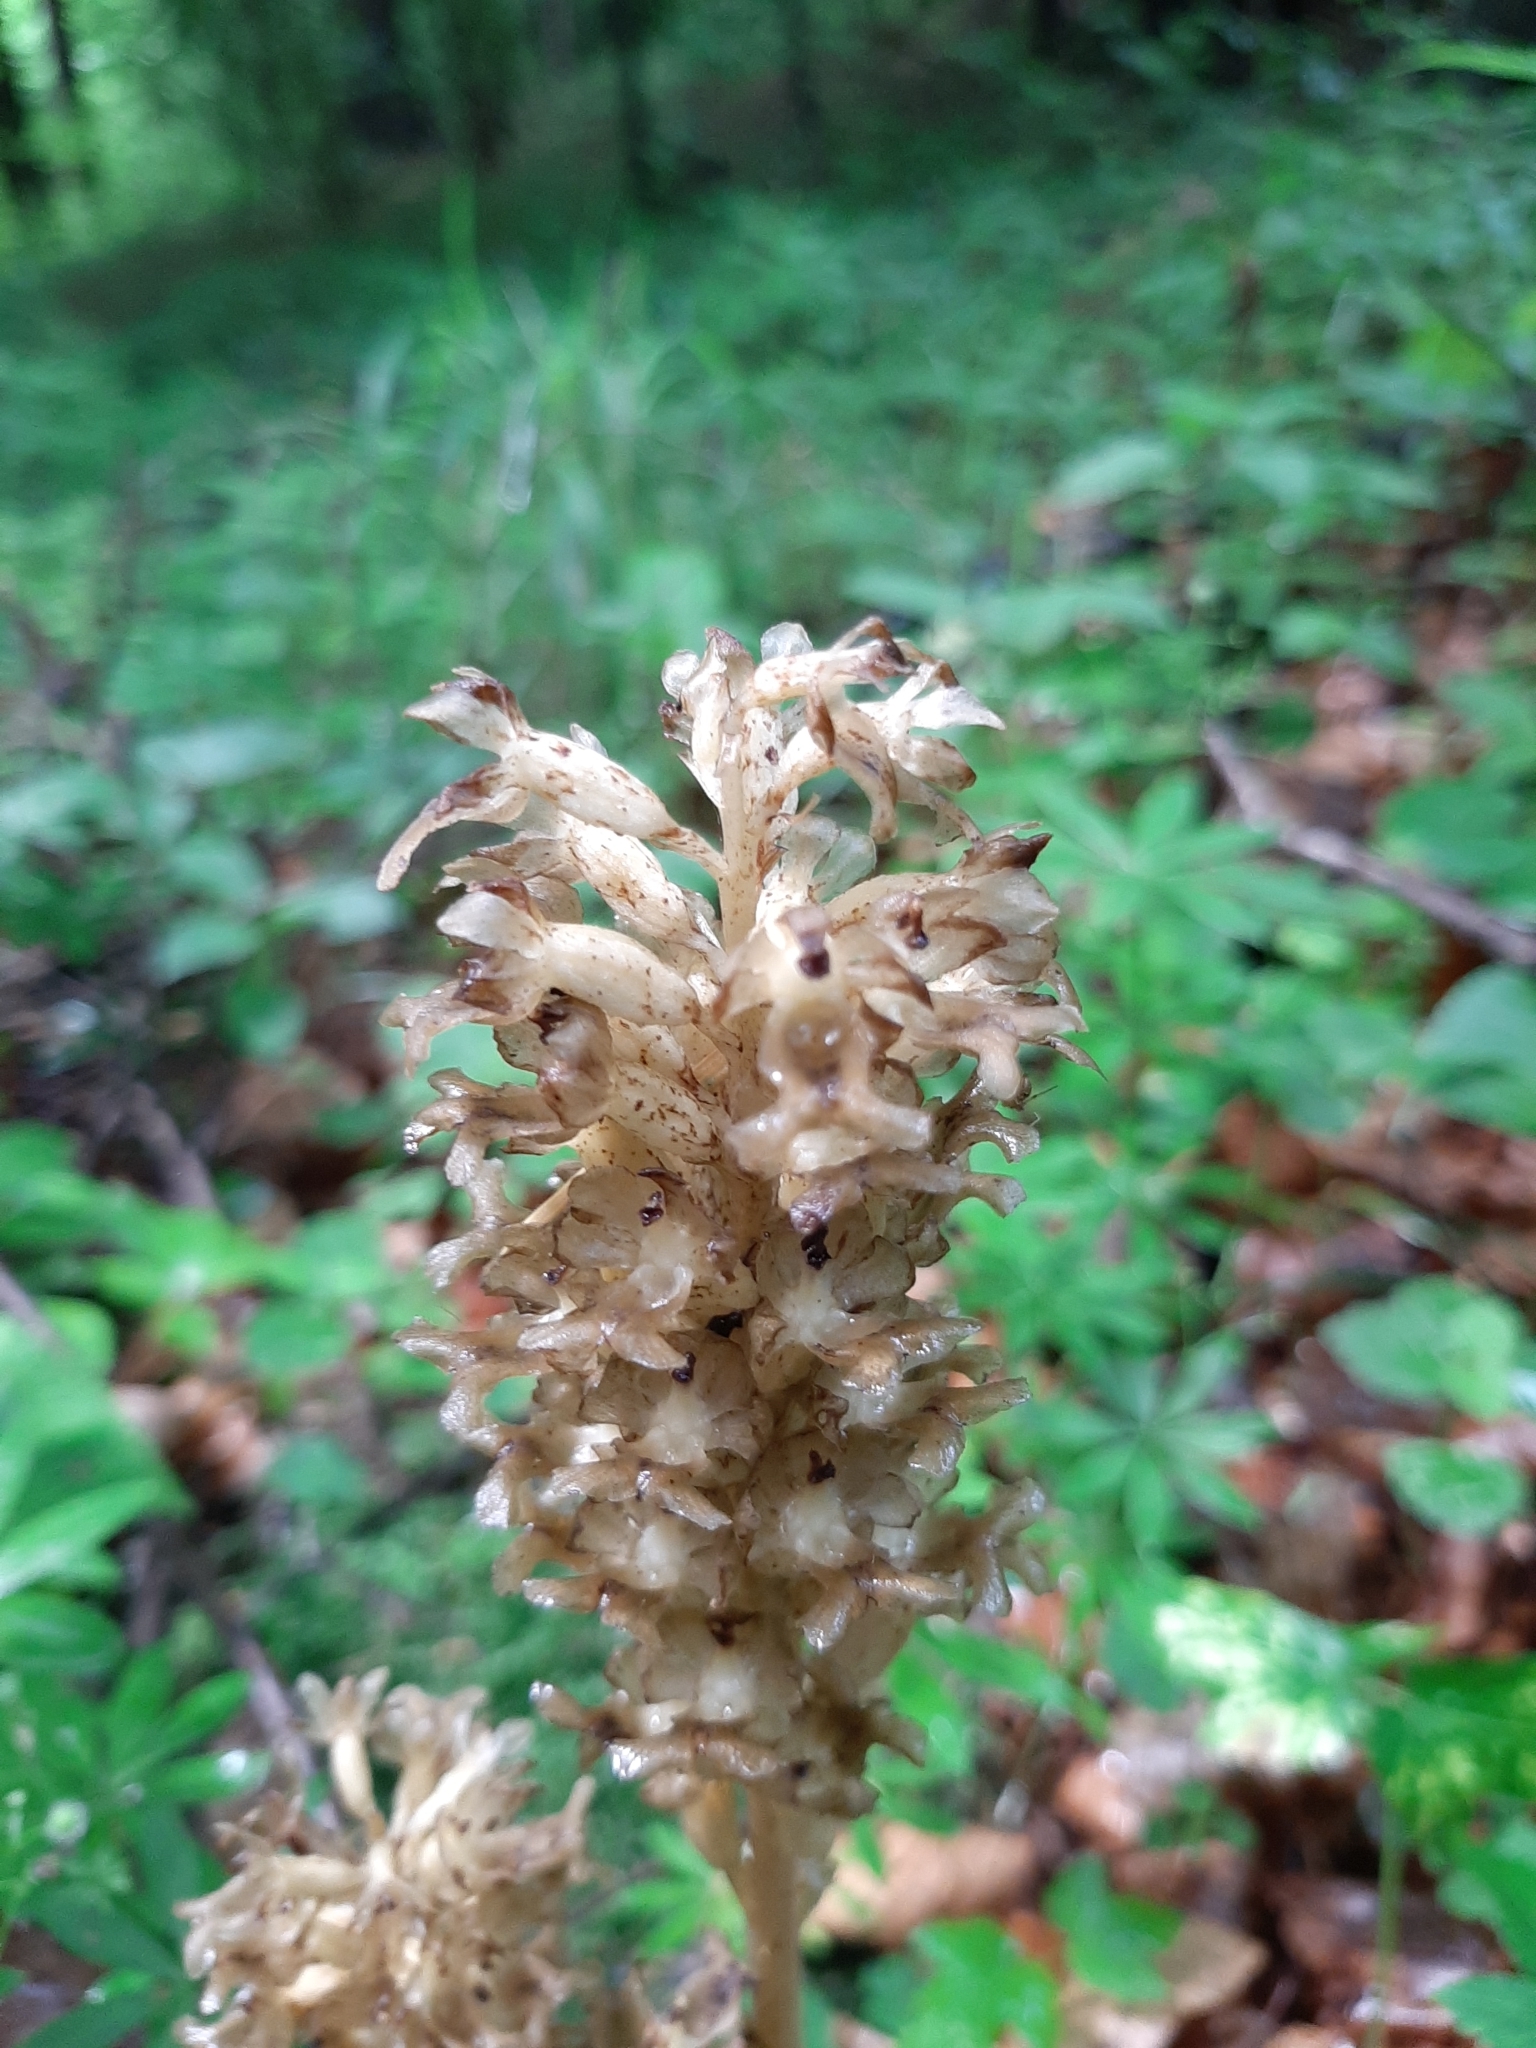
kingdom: Plantae
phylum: Tracheophyta
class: Liliopsida
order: Asparagales
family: Orchidaceae
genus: Neottia
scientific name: Neottia nidus-avis
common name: Bird's-nest orchid
